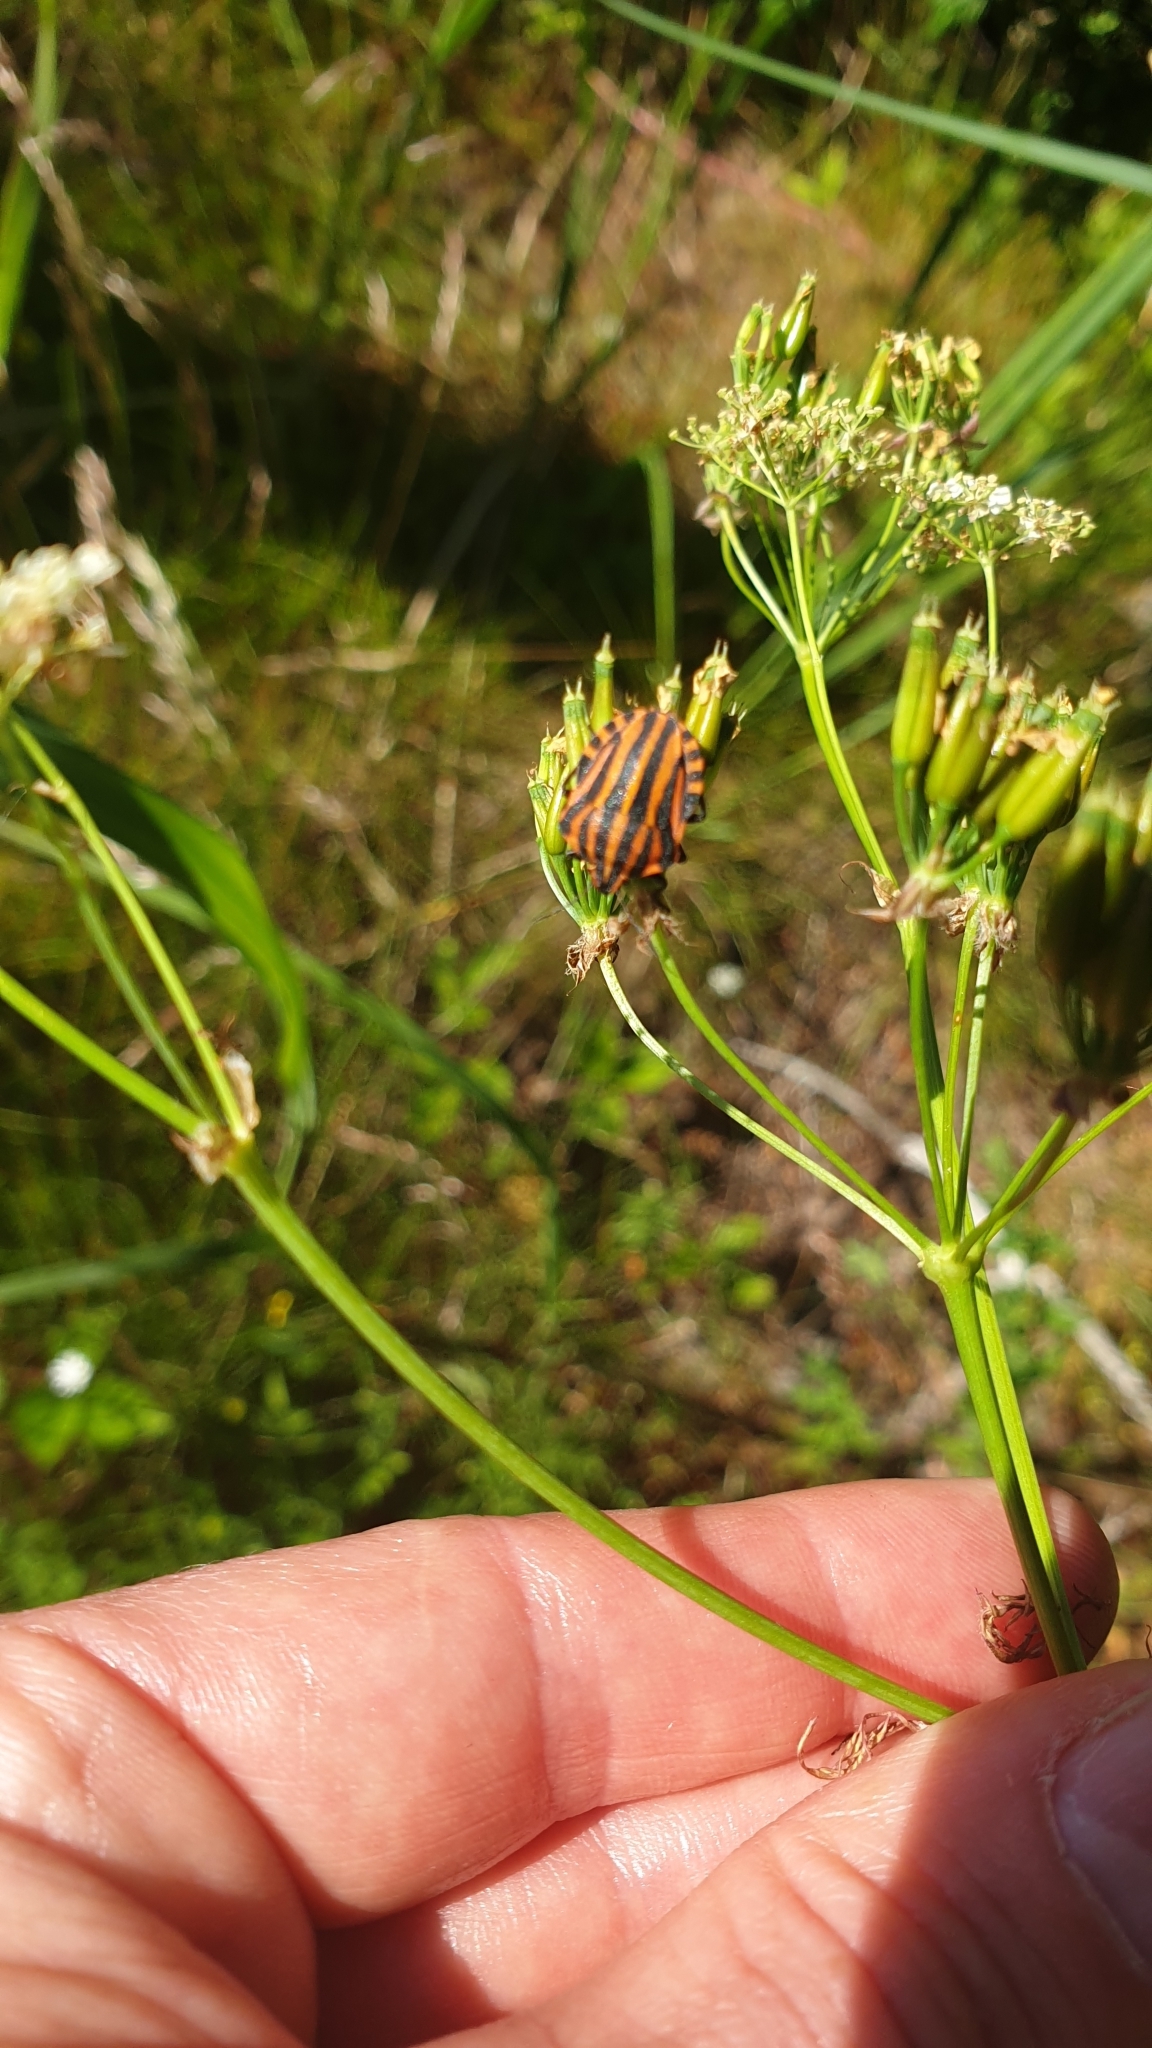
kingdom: Animalia
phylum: Arthropoda
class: Insecta
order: Hemiptera
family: Pentatomidae
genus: Graphosoma
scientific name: Graphosoma italicum
